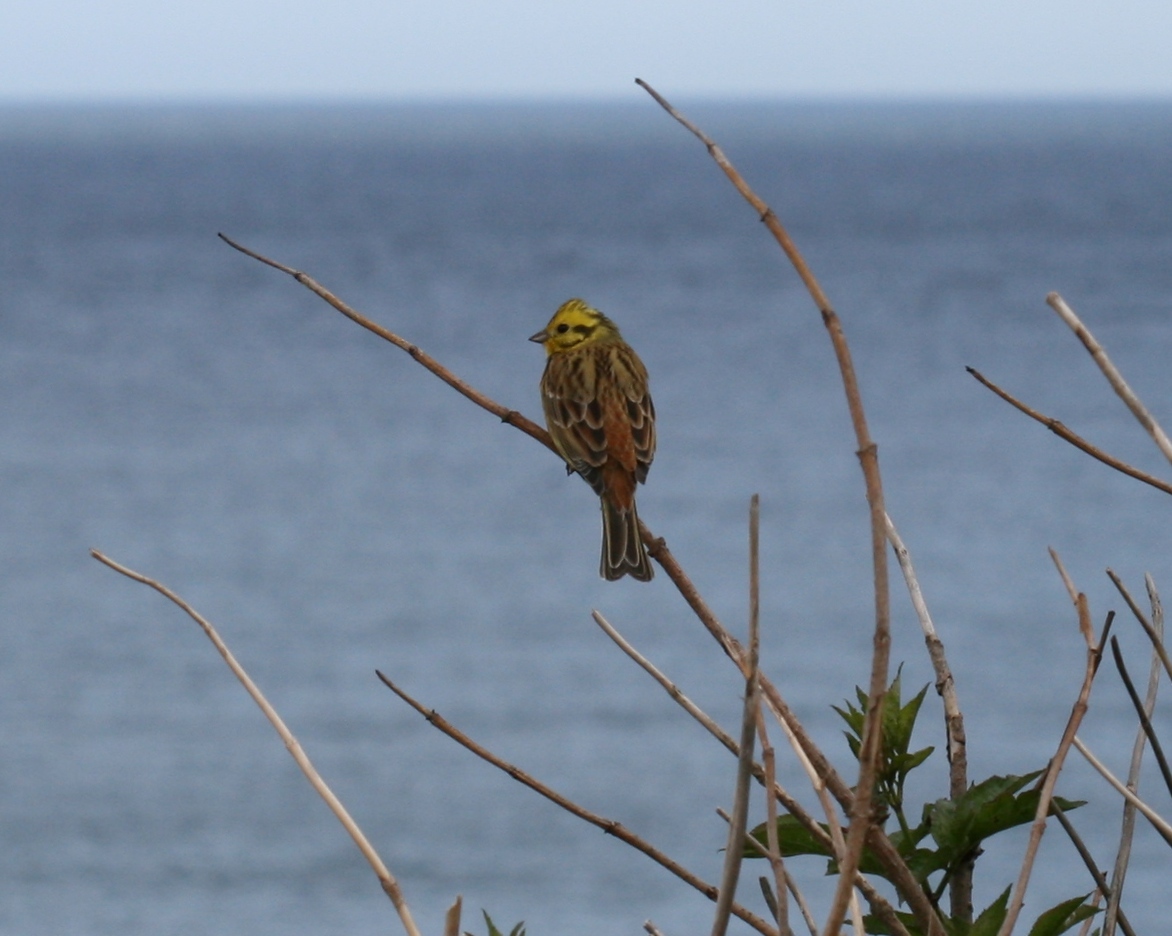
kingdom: Animalia
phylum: Chordata
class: Aves
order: Passeriformes
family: Emberizidae
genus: Emberiza
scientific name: Emberiza citrinella
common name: Yellowhammer
